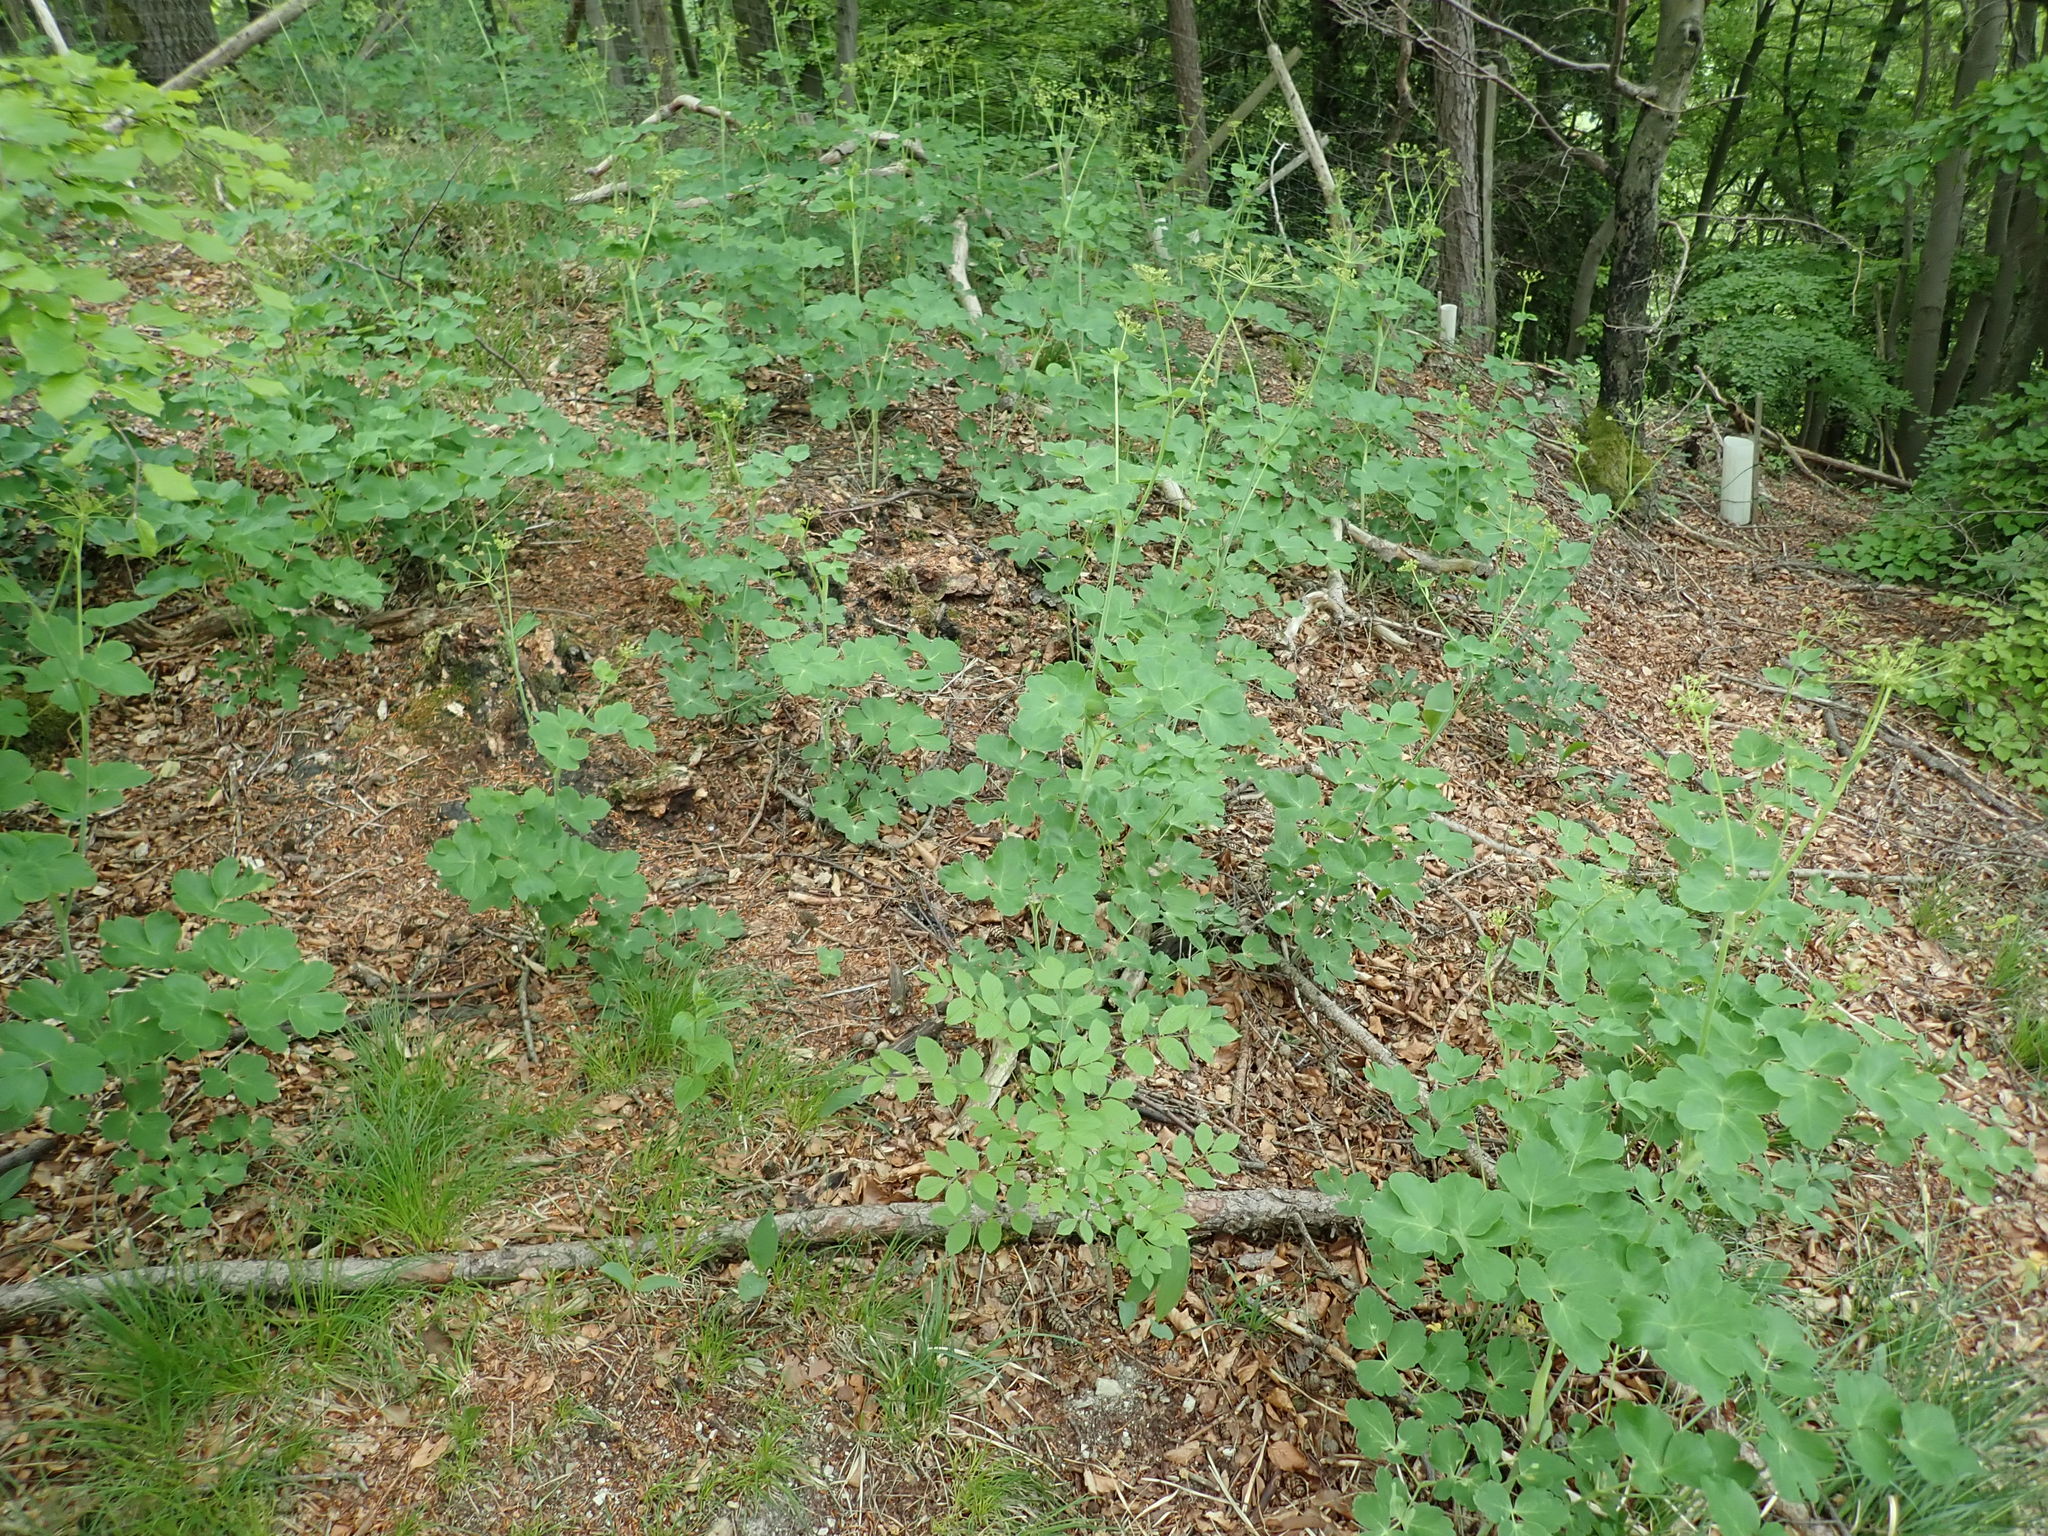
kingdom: Plantae
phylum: Tracheophyta
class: Magnoliopsida
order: Apiales
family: Apiaceae
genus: Laser
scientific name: Laser trilobum
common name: Laser
